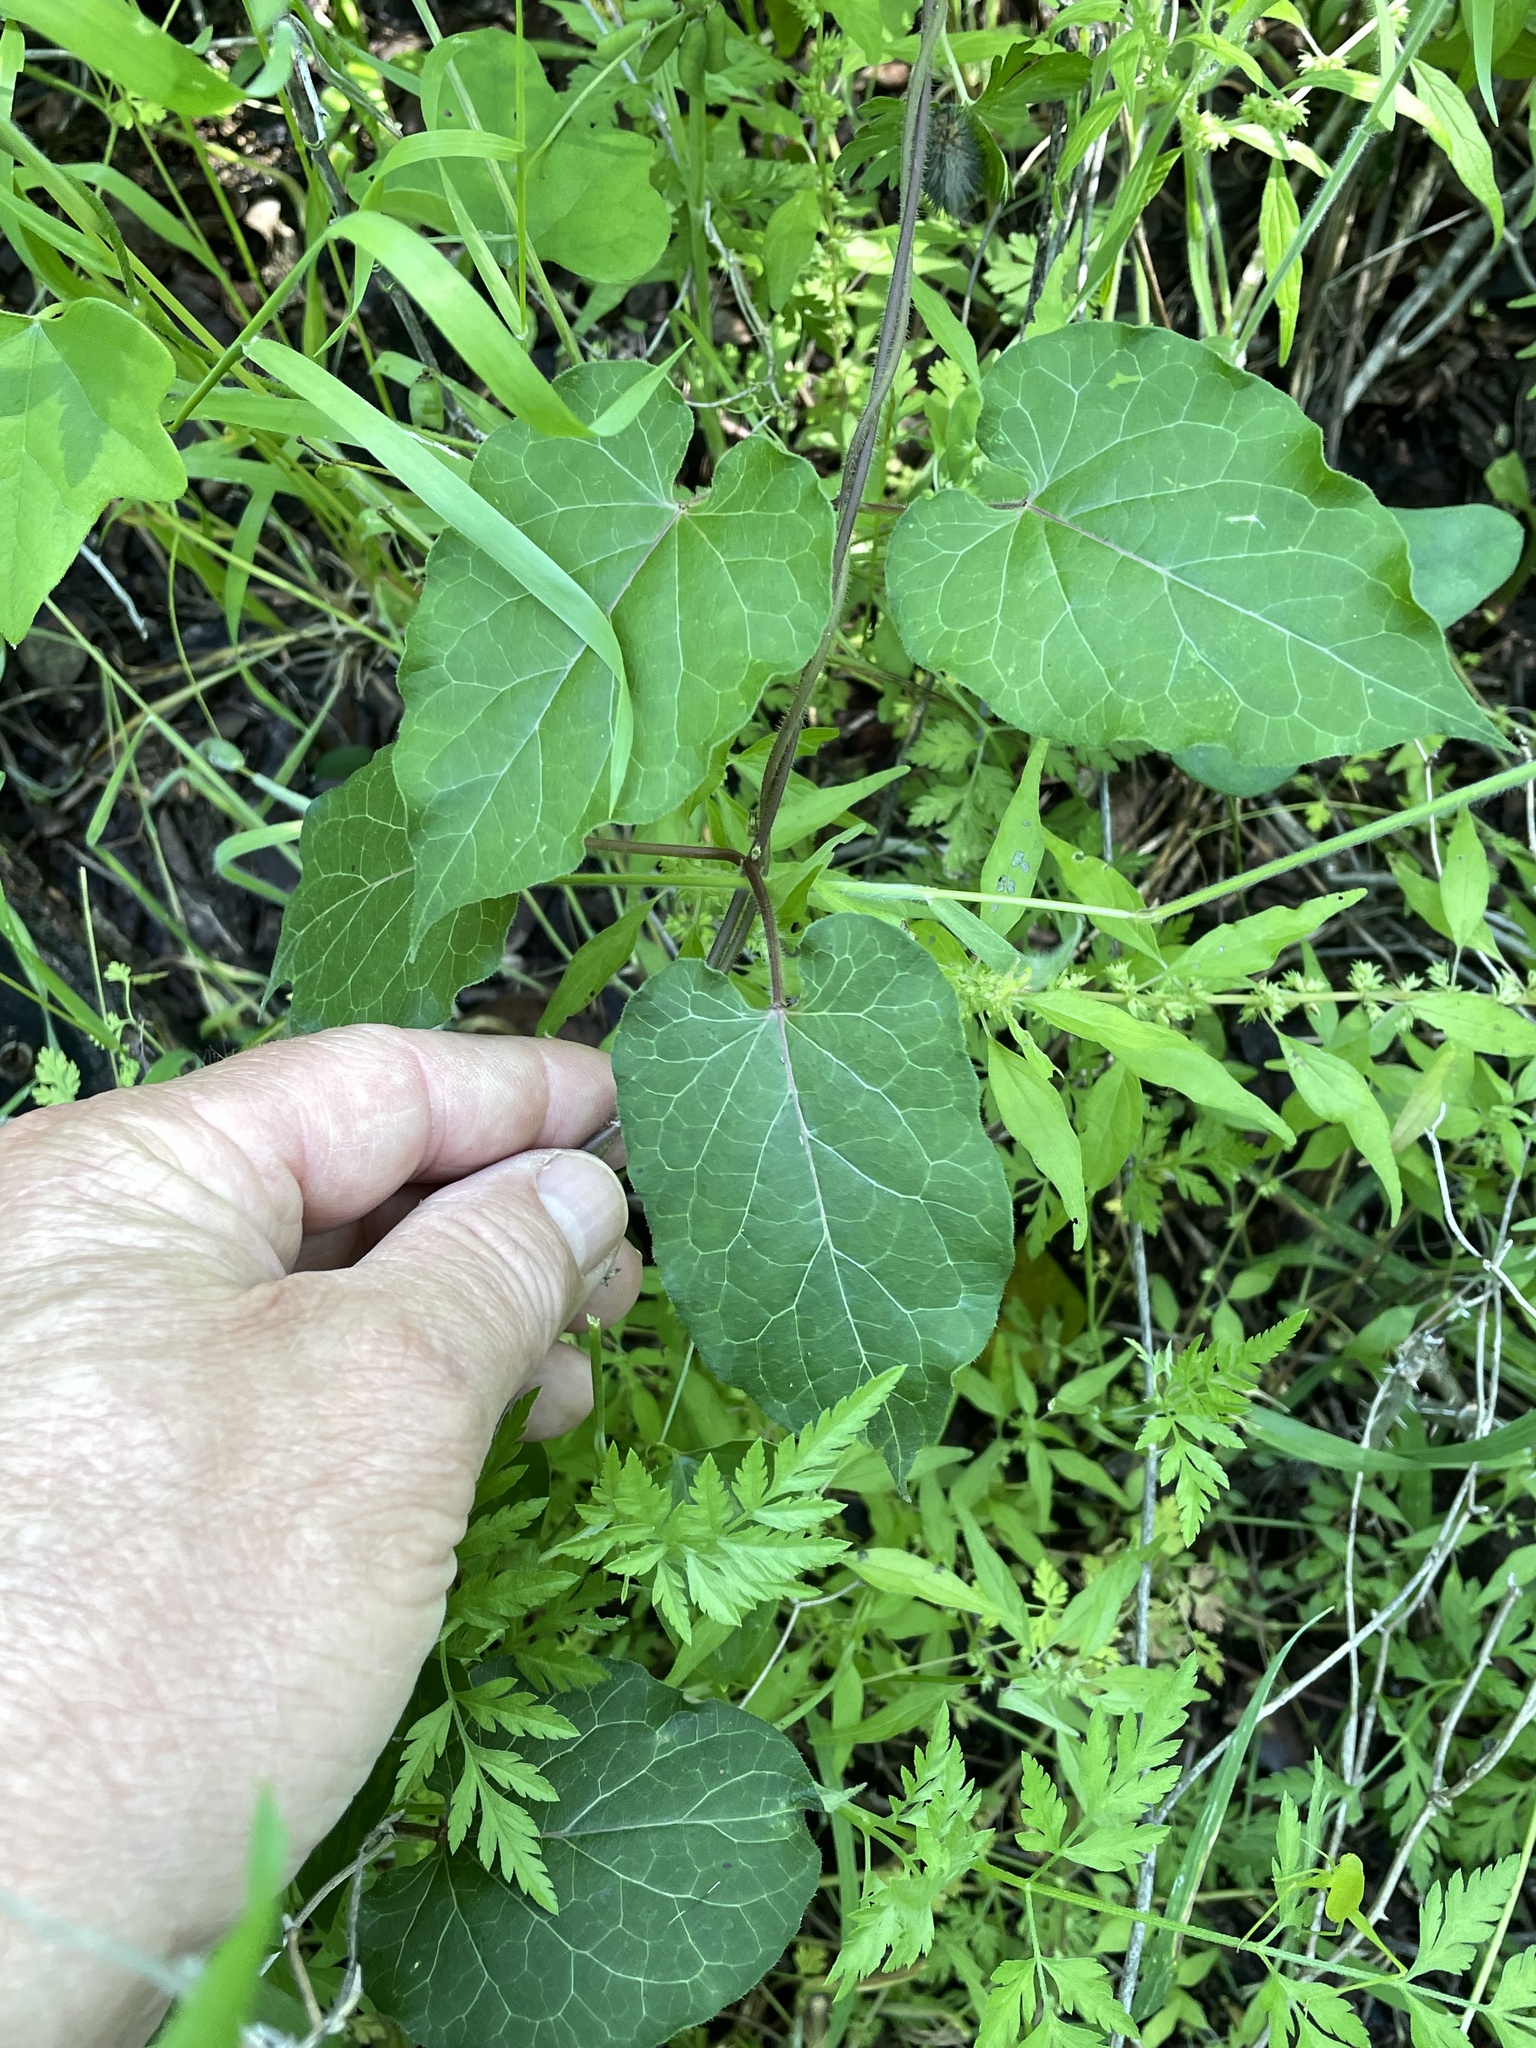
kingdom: Plantae
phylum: Tracheophyta
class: Magnoliopsida
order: Gentianales
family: Apocynaceae
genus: Gonolobus
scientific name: Gonolobus suberosus
